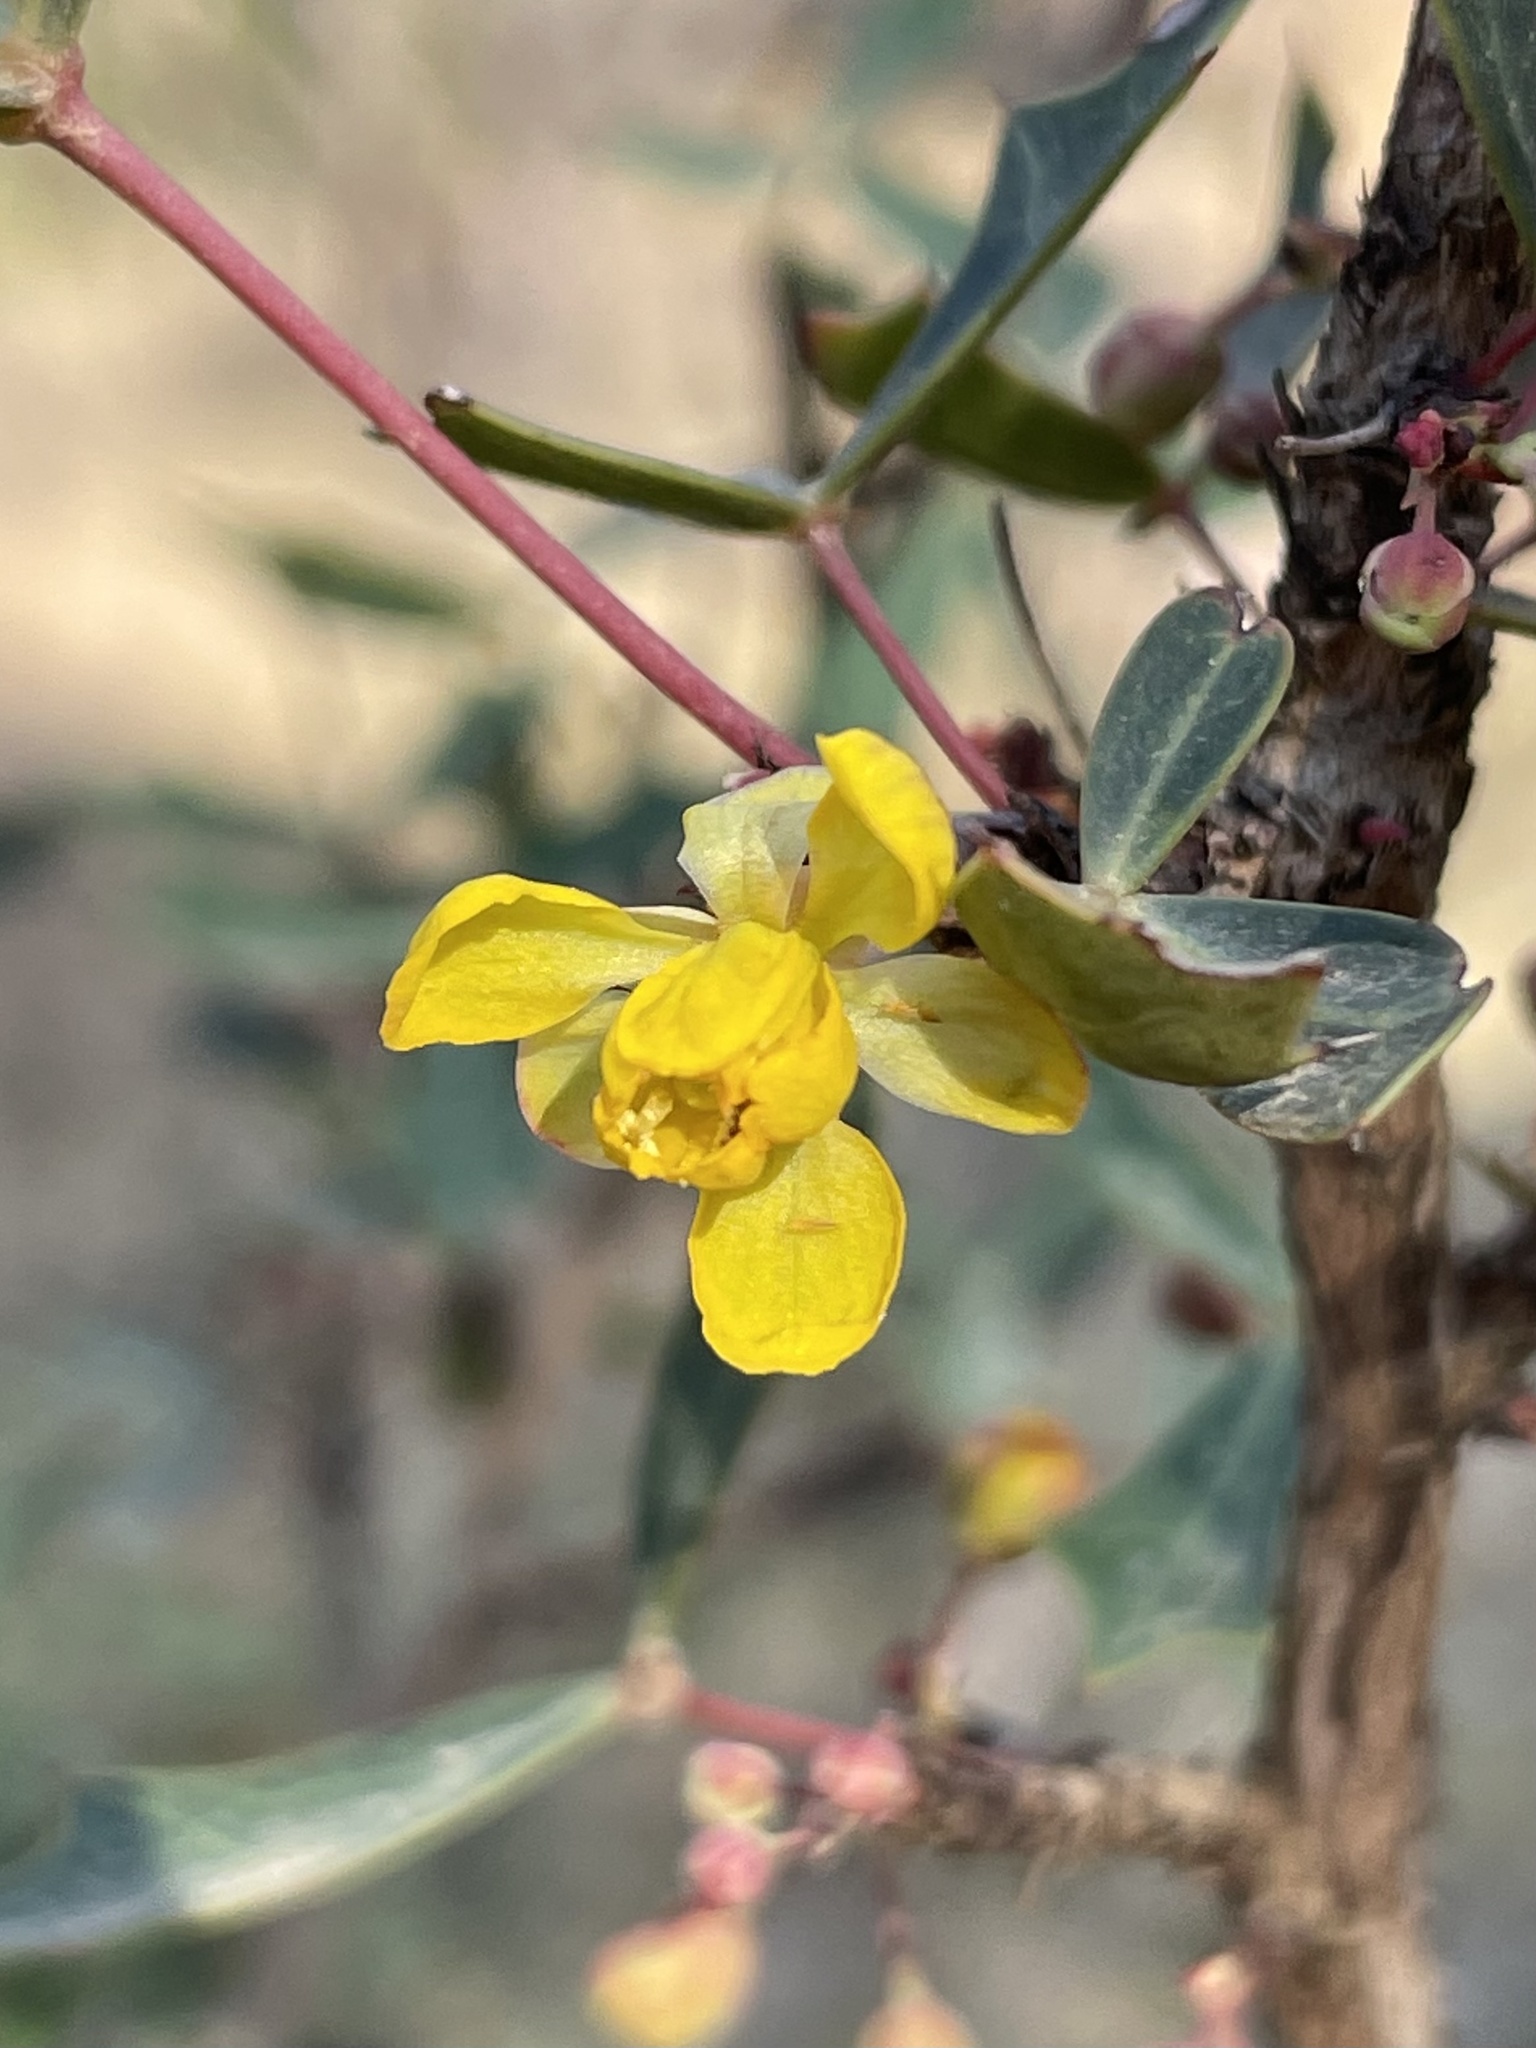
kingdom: Plantae
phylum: Tracheophyta
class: Magnoliopsida
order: Ranunculales
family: Berberidaceae
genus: Alloberberis
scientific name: Alloberberis trifoliolata
